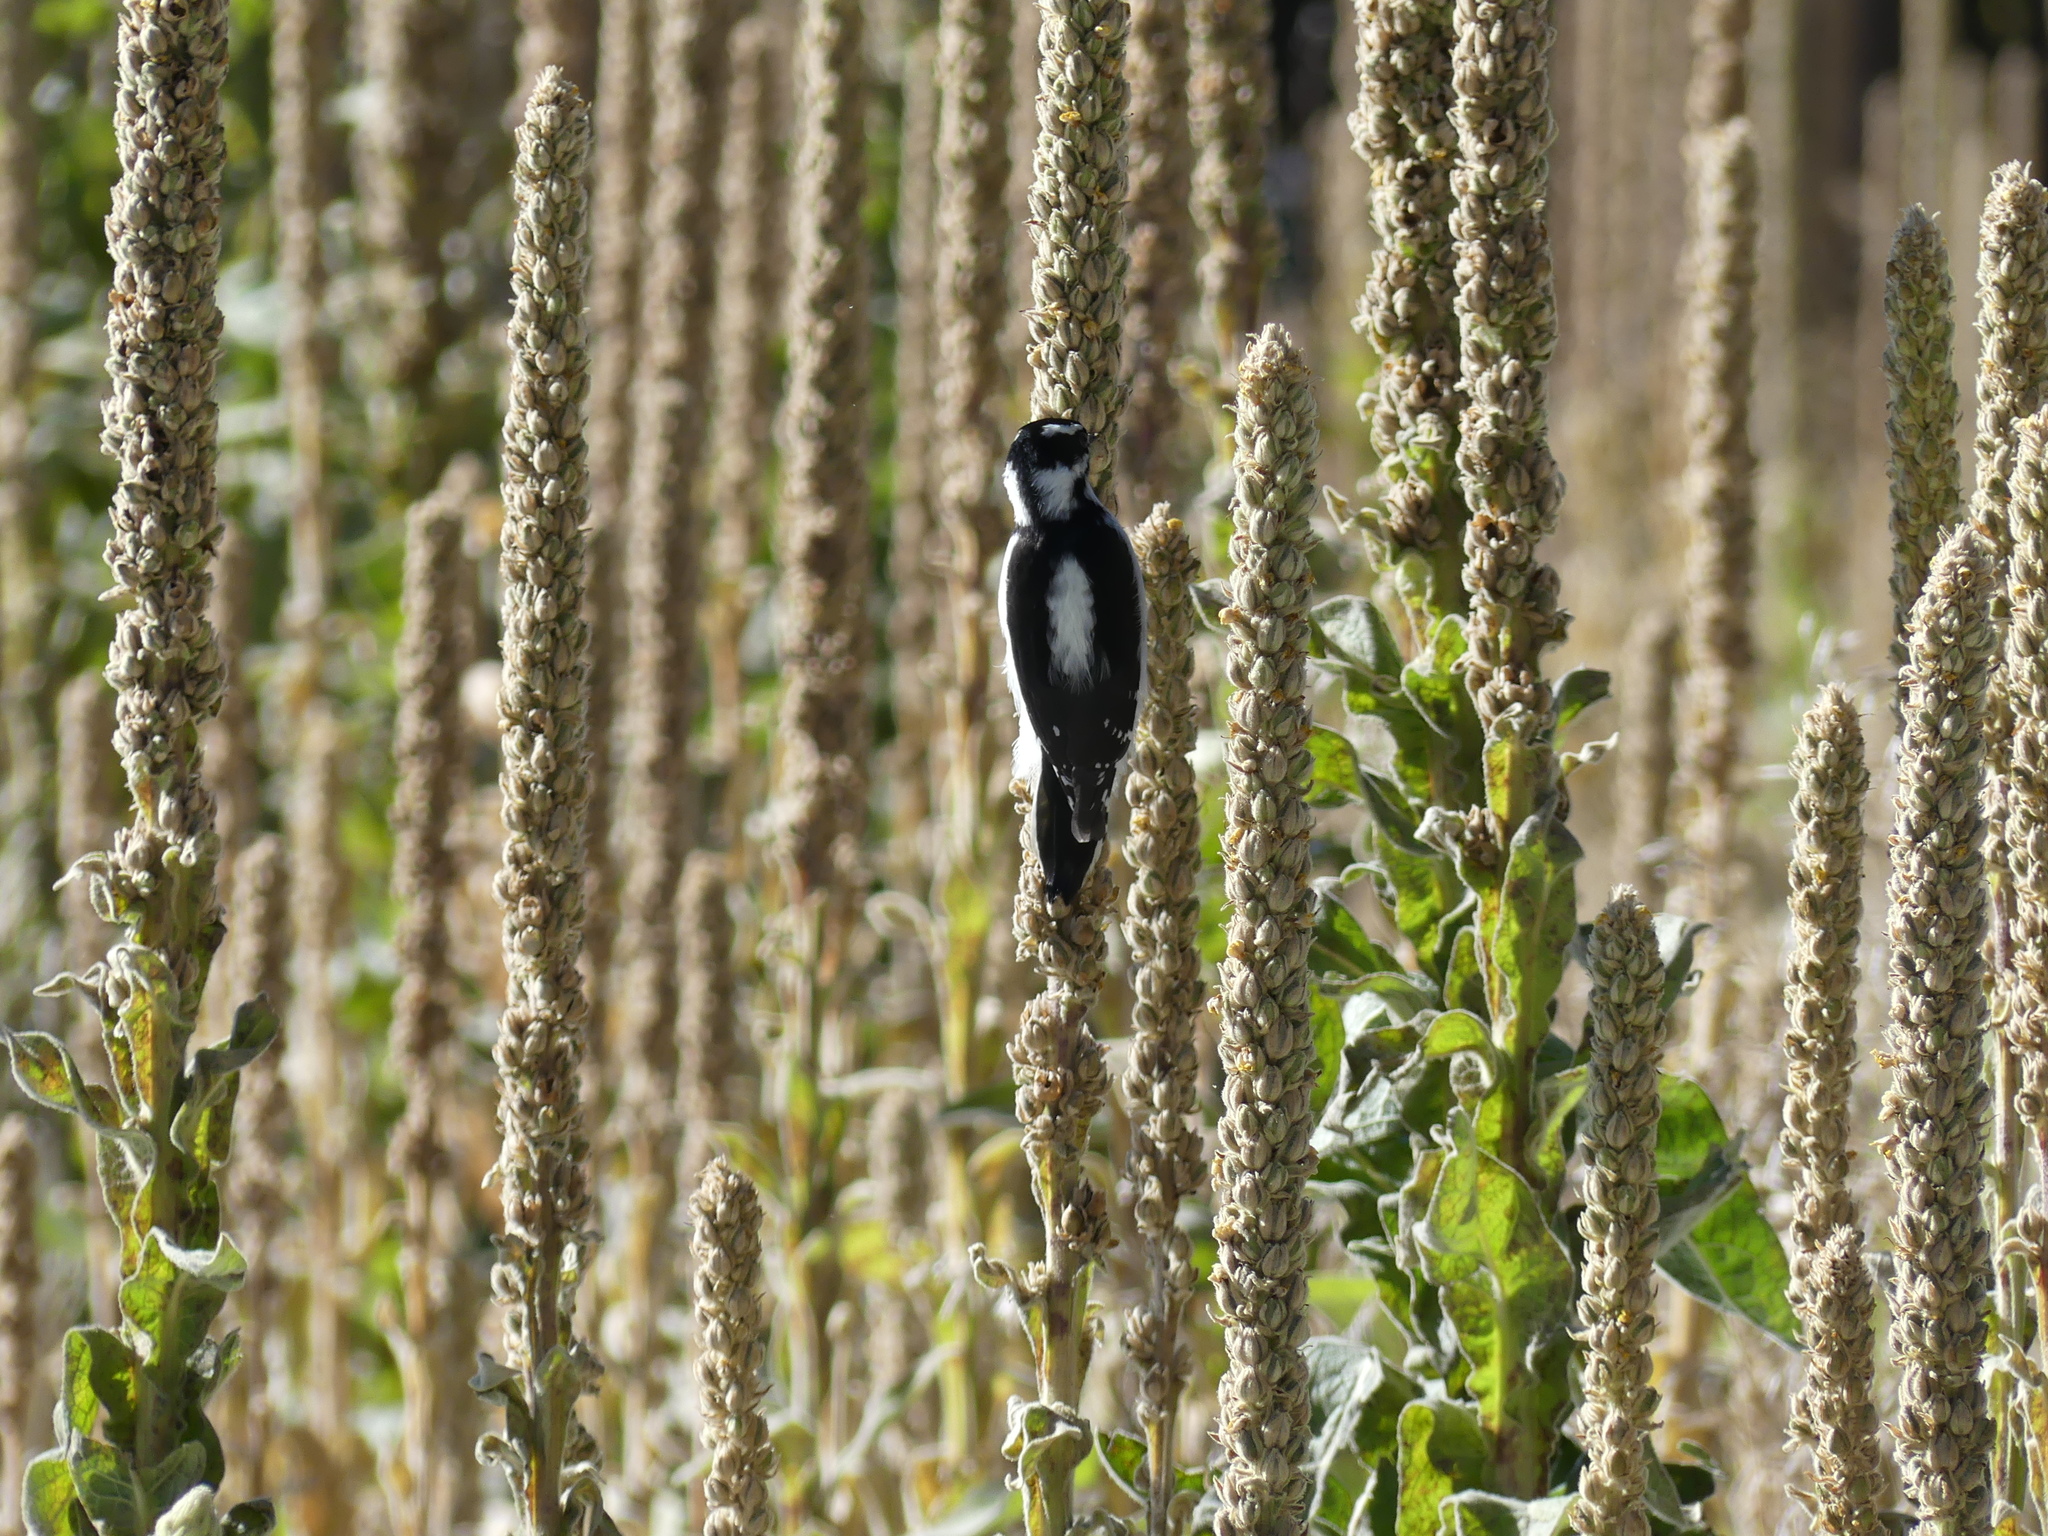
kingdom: Animalia
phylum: Chordata
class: Aves
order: Piciformes
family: Picidae
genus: Dryobates
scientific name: Dryobates pubescens
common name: Downy woodpecker
